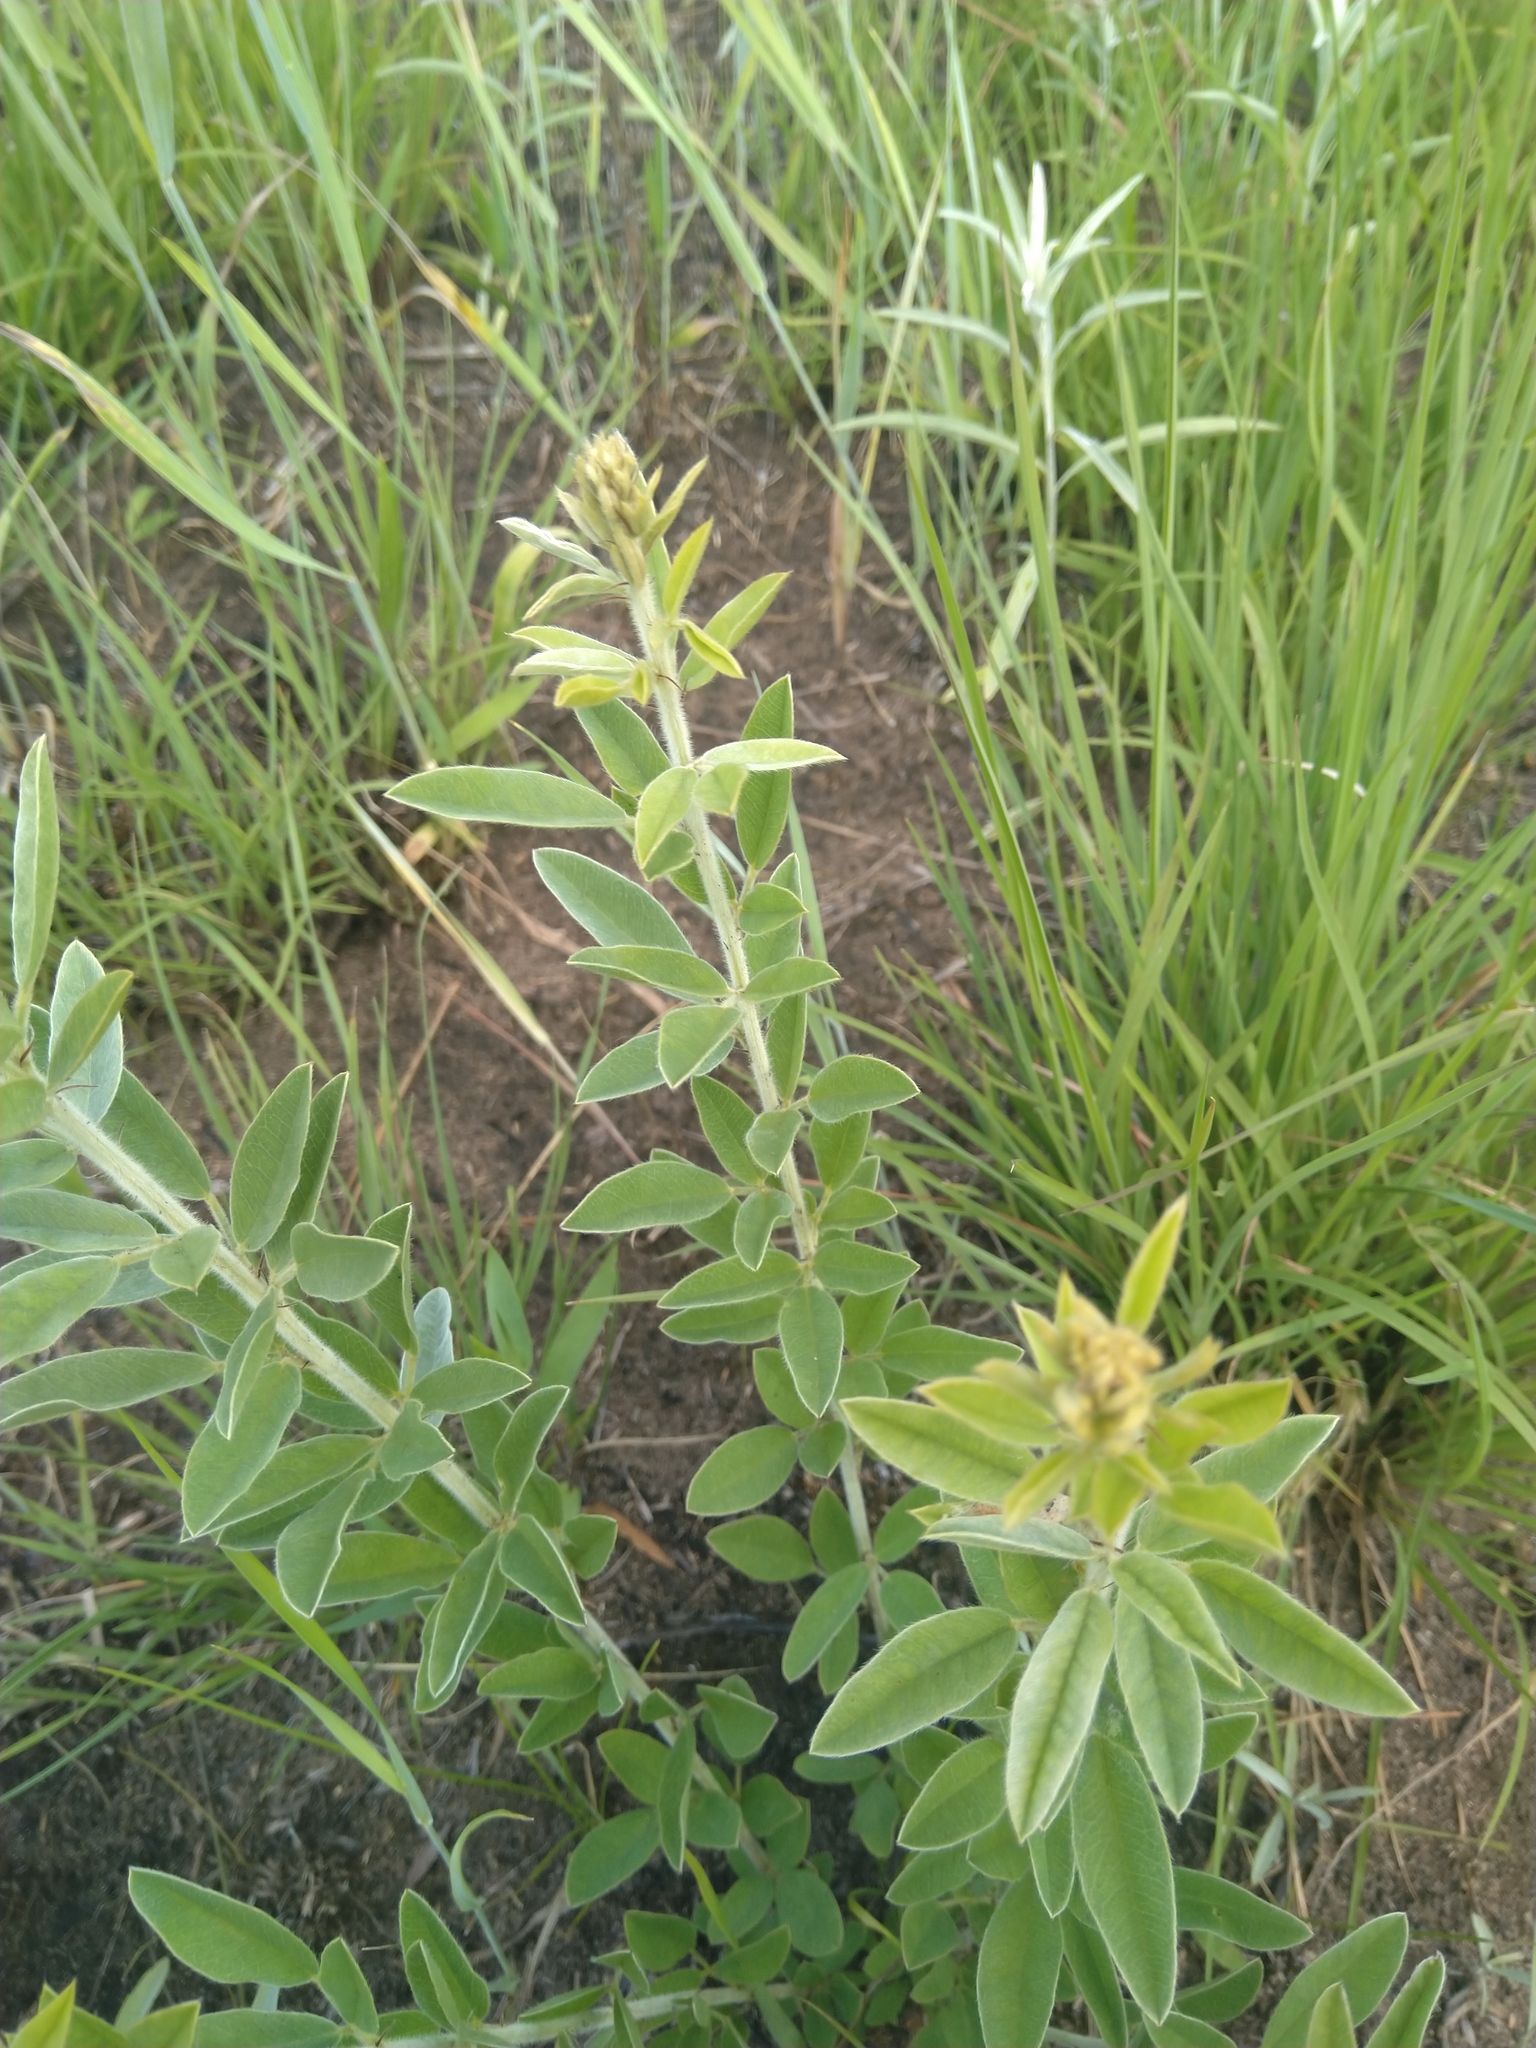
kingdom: Plantae
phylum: Tracheophyta
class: Magnoliopsida
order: Fabales
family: Fabaceae
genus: Lespedeza
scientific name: Lespedeza capitata
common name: Dusty clover
